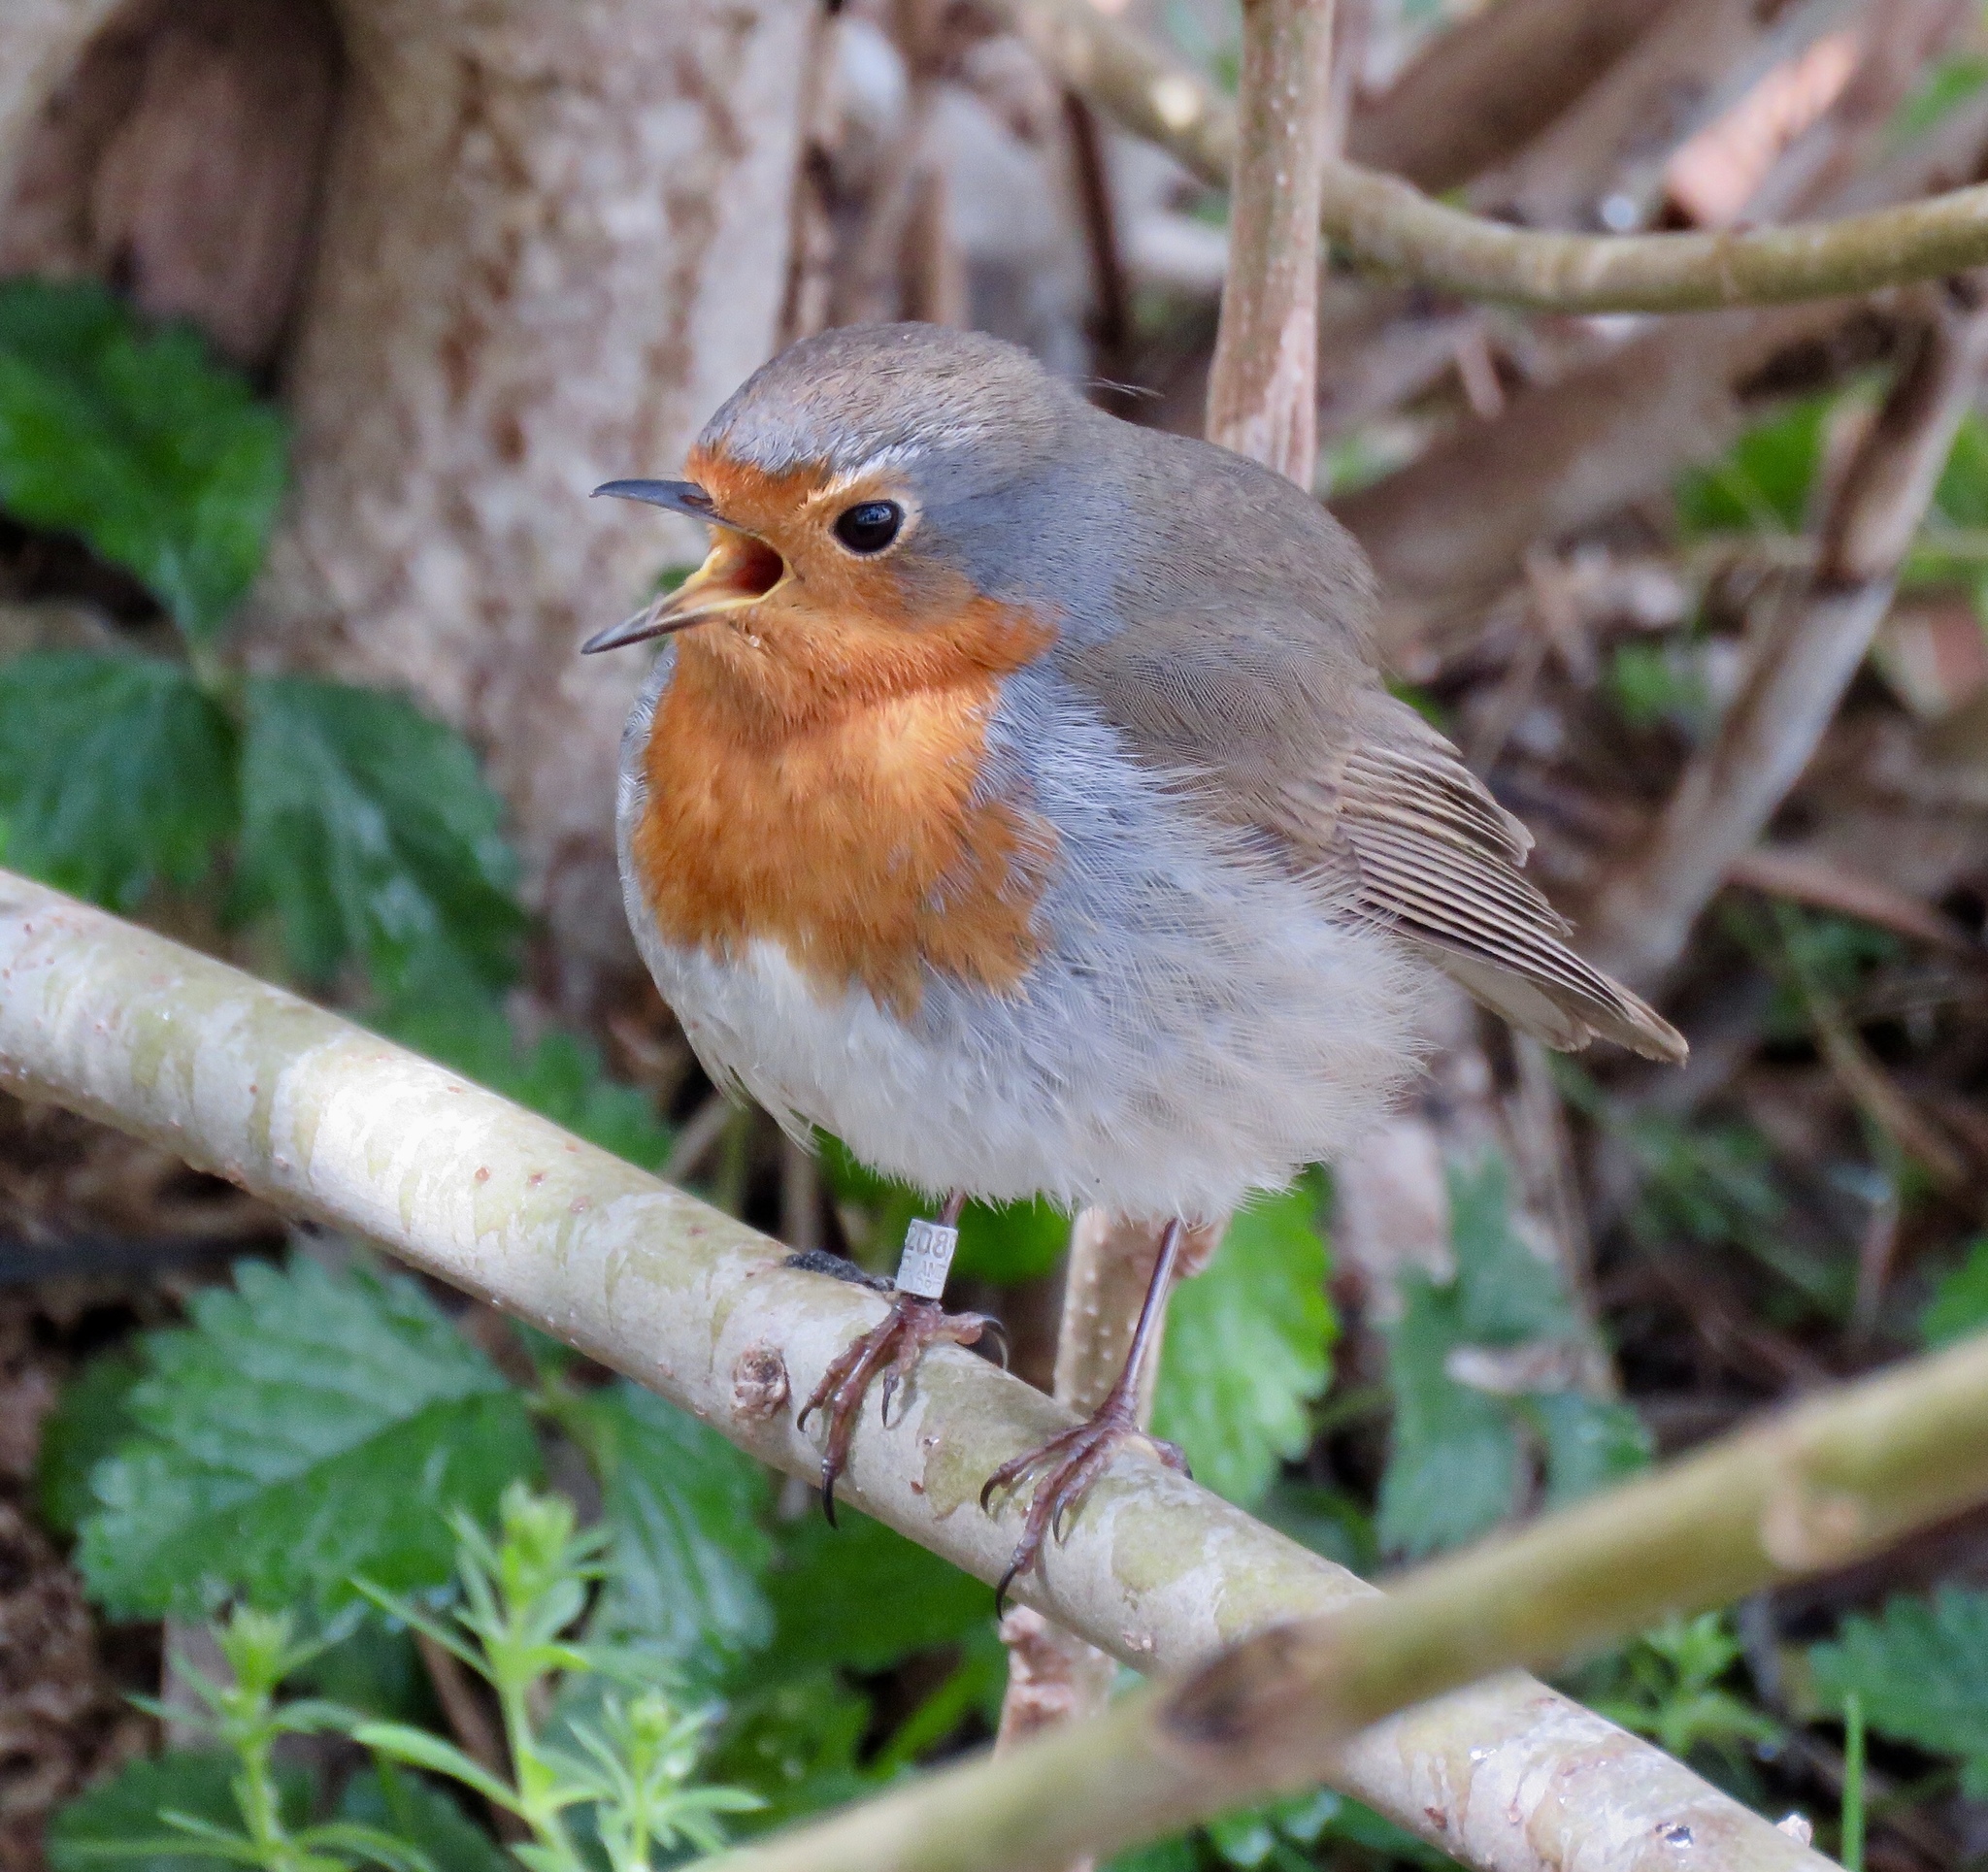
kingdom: Animalia
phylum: Chordata
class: Aves
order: Passeriformes
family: Muscicapidae
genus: Erithacus
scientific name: Erithacus rubecula
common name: European robin
